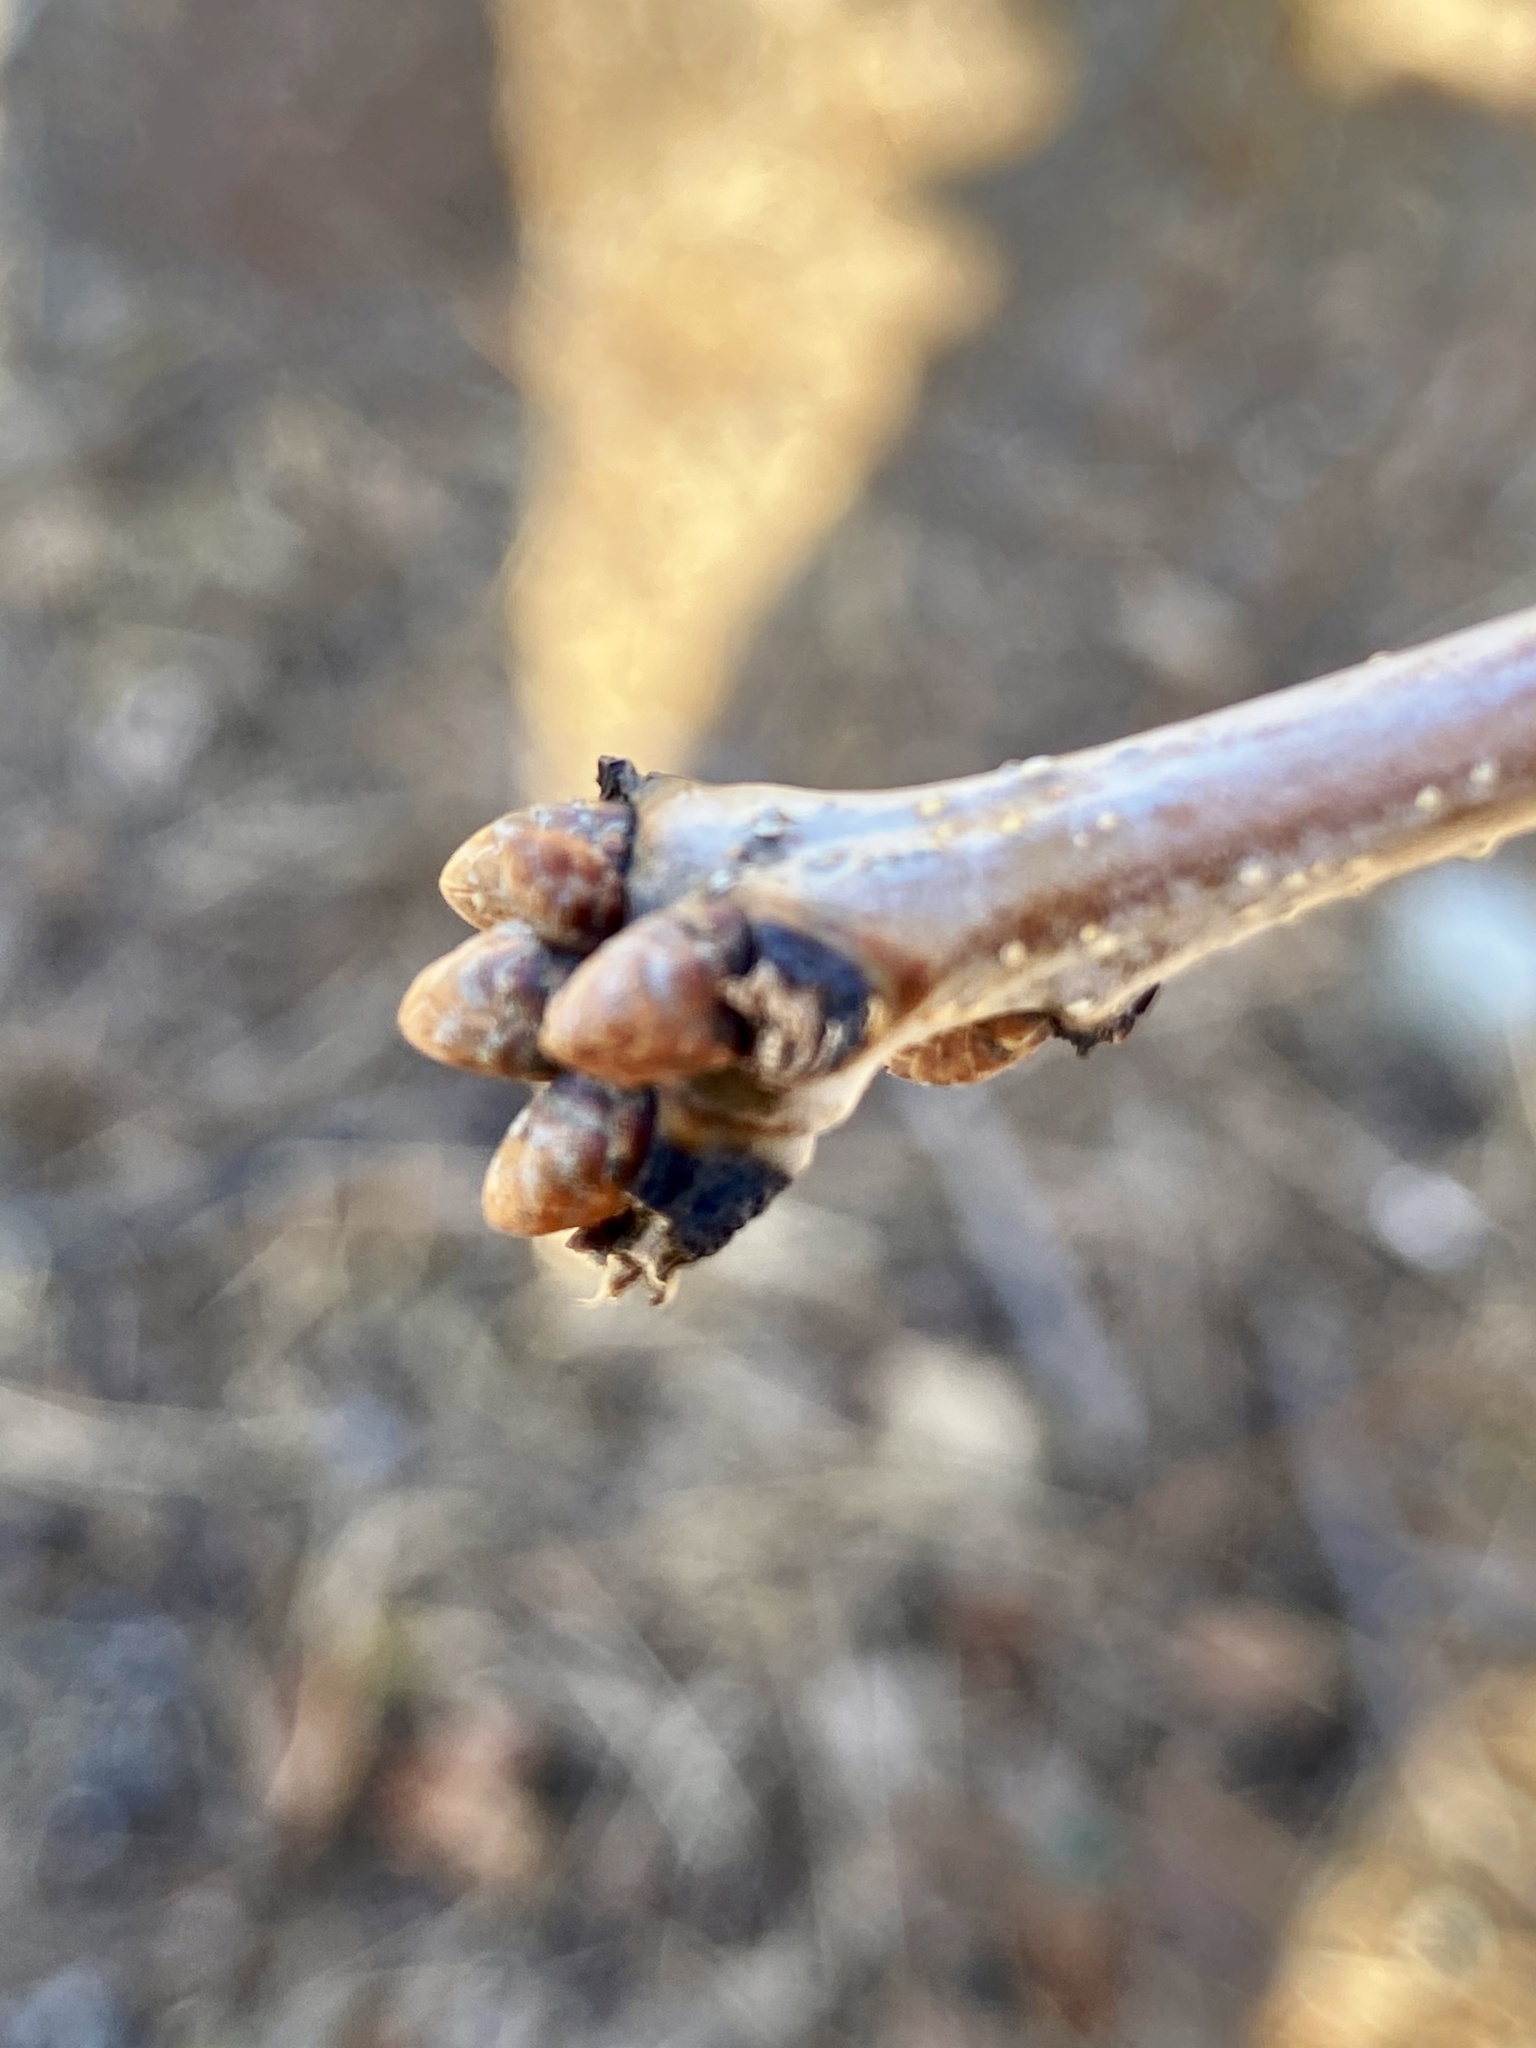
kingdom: Plantae
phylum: Tracheophyta
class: Magnoliopsida
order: Fagales
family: Fagaceae
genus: Quercus
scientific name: Quercus alba
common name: White oak
